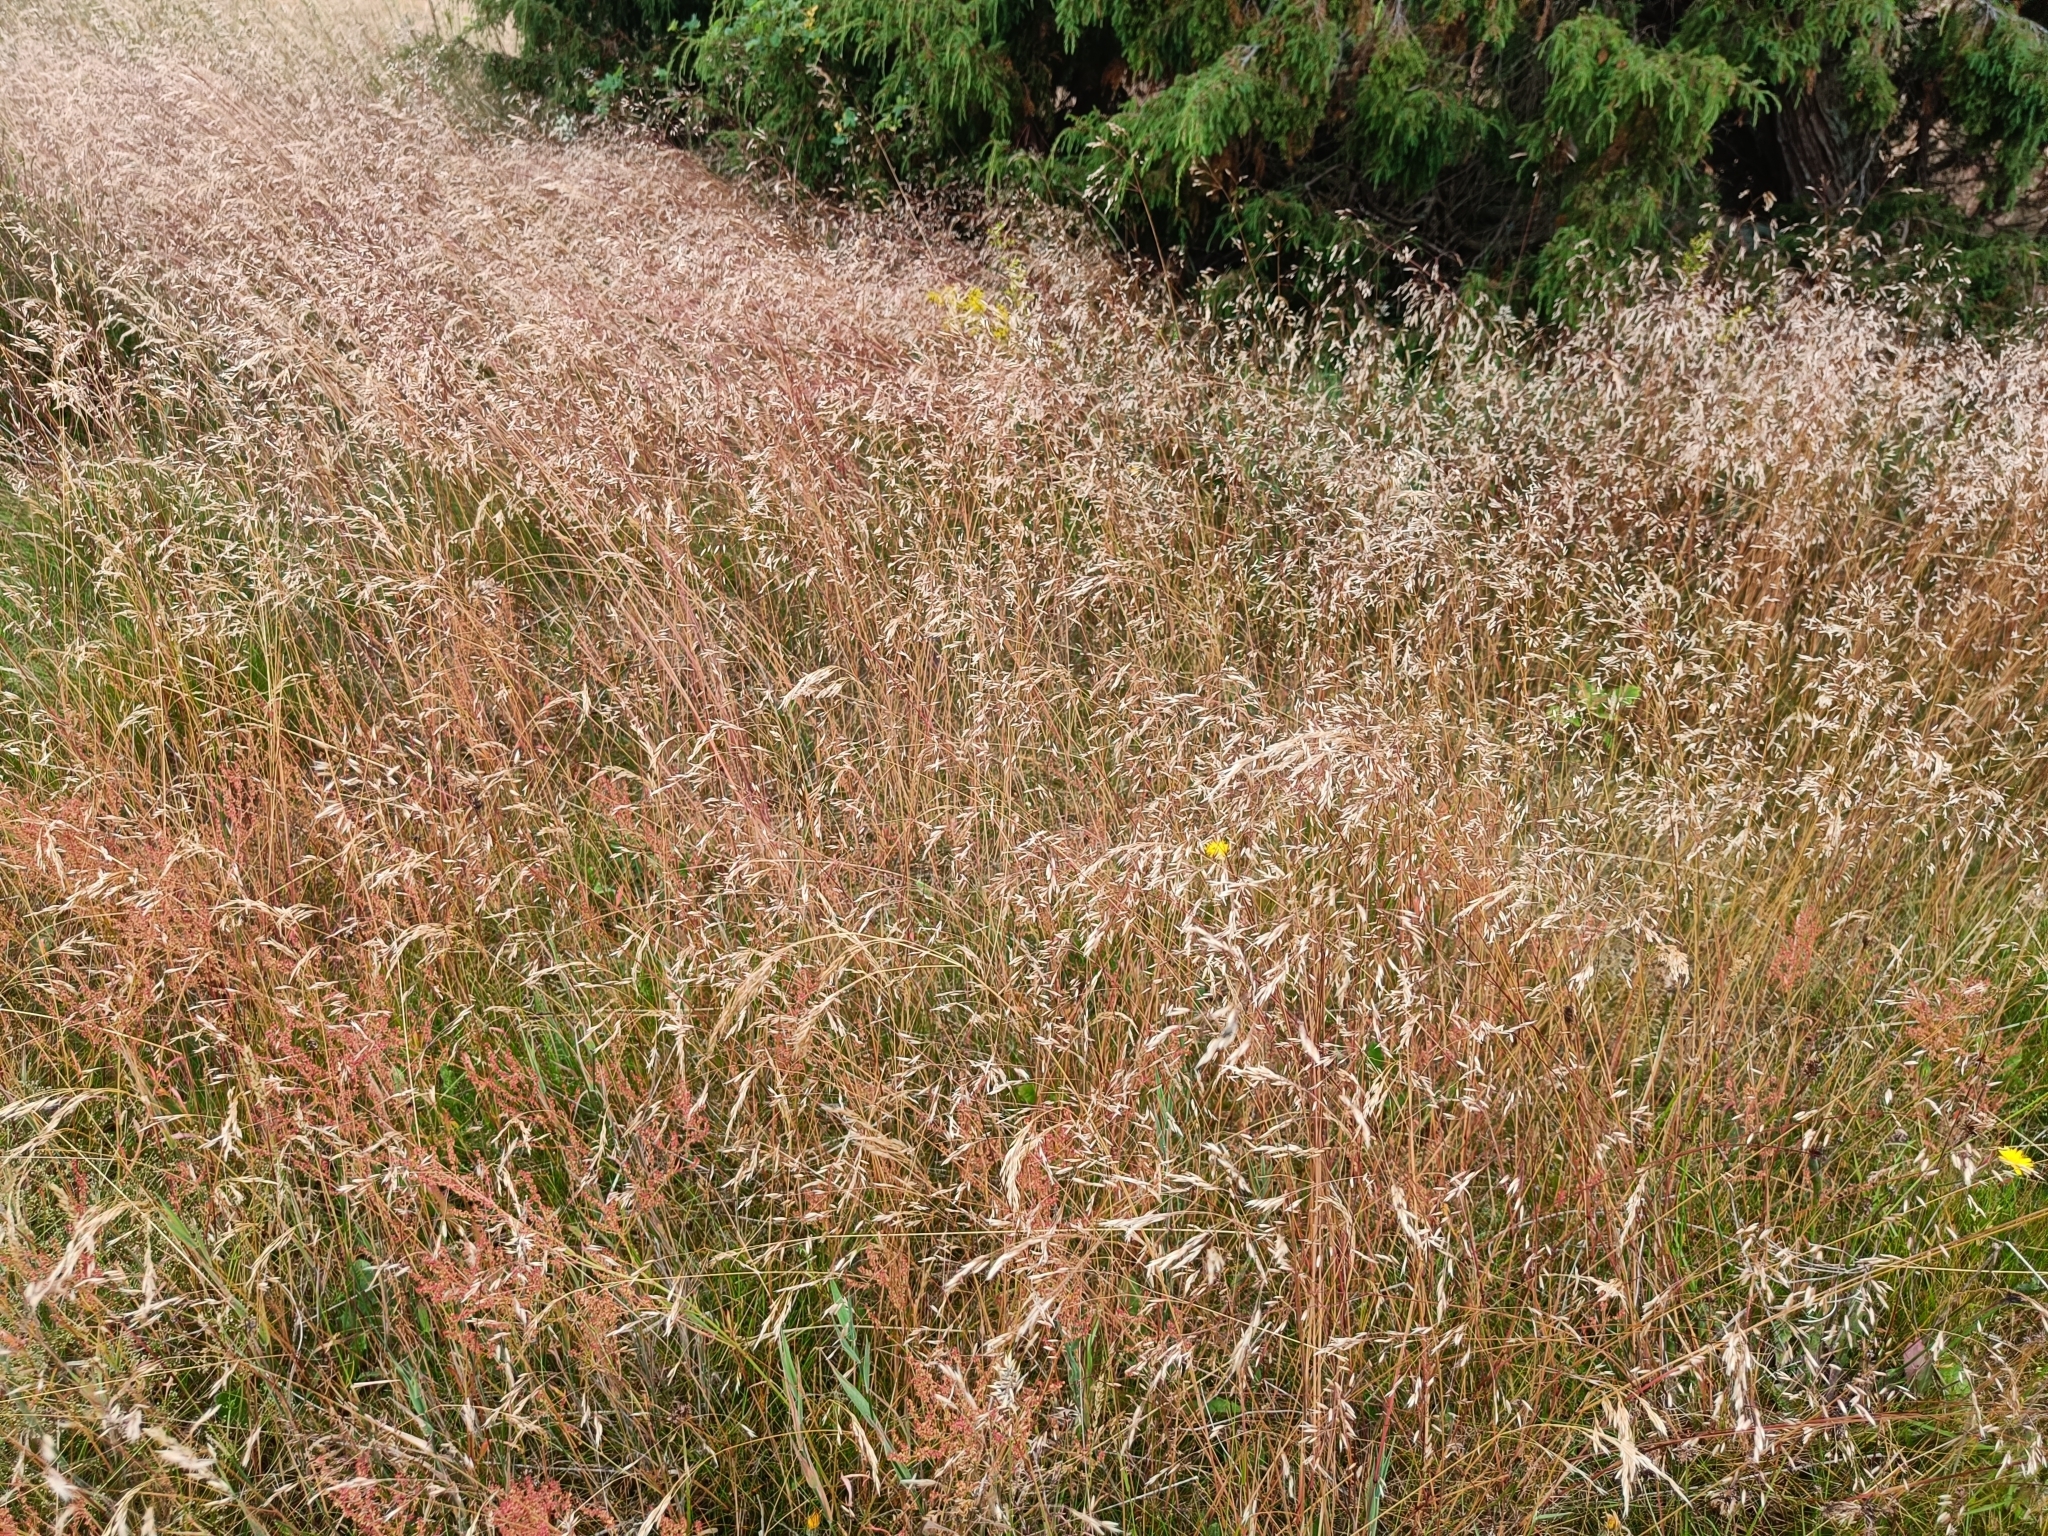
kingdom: Plantae
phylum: Tracheophyta
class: Liliopsida
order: Poales
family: Poaceae
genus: Avenella
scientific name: Avenella flexuosa
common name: Wavy hairgrass
